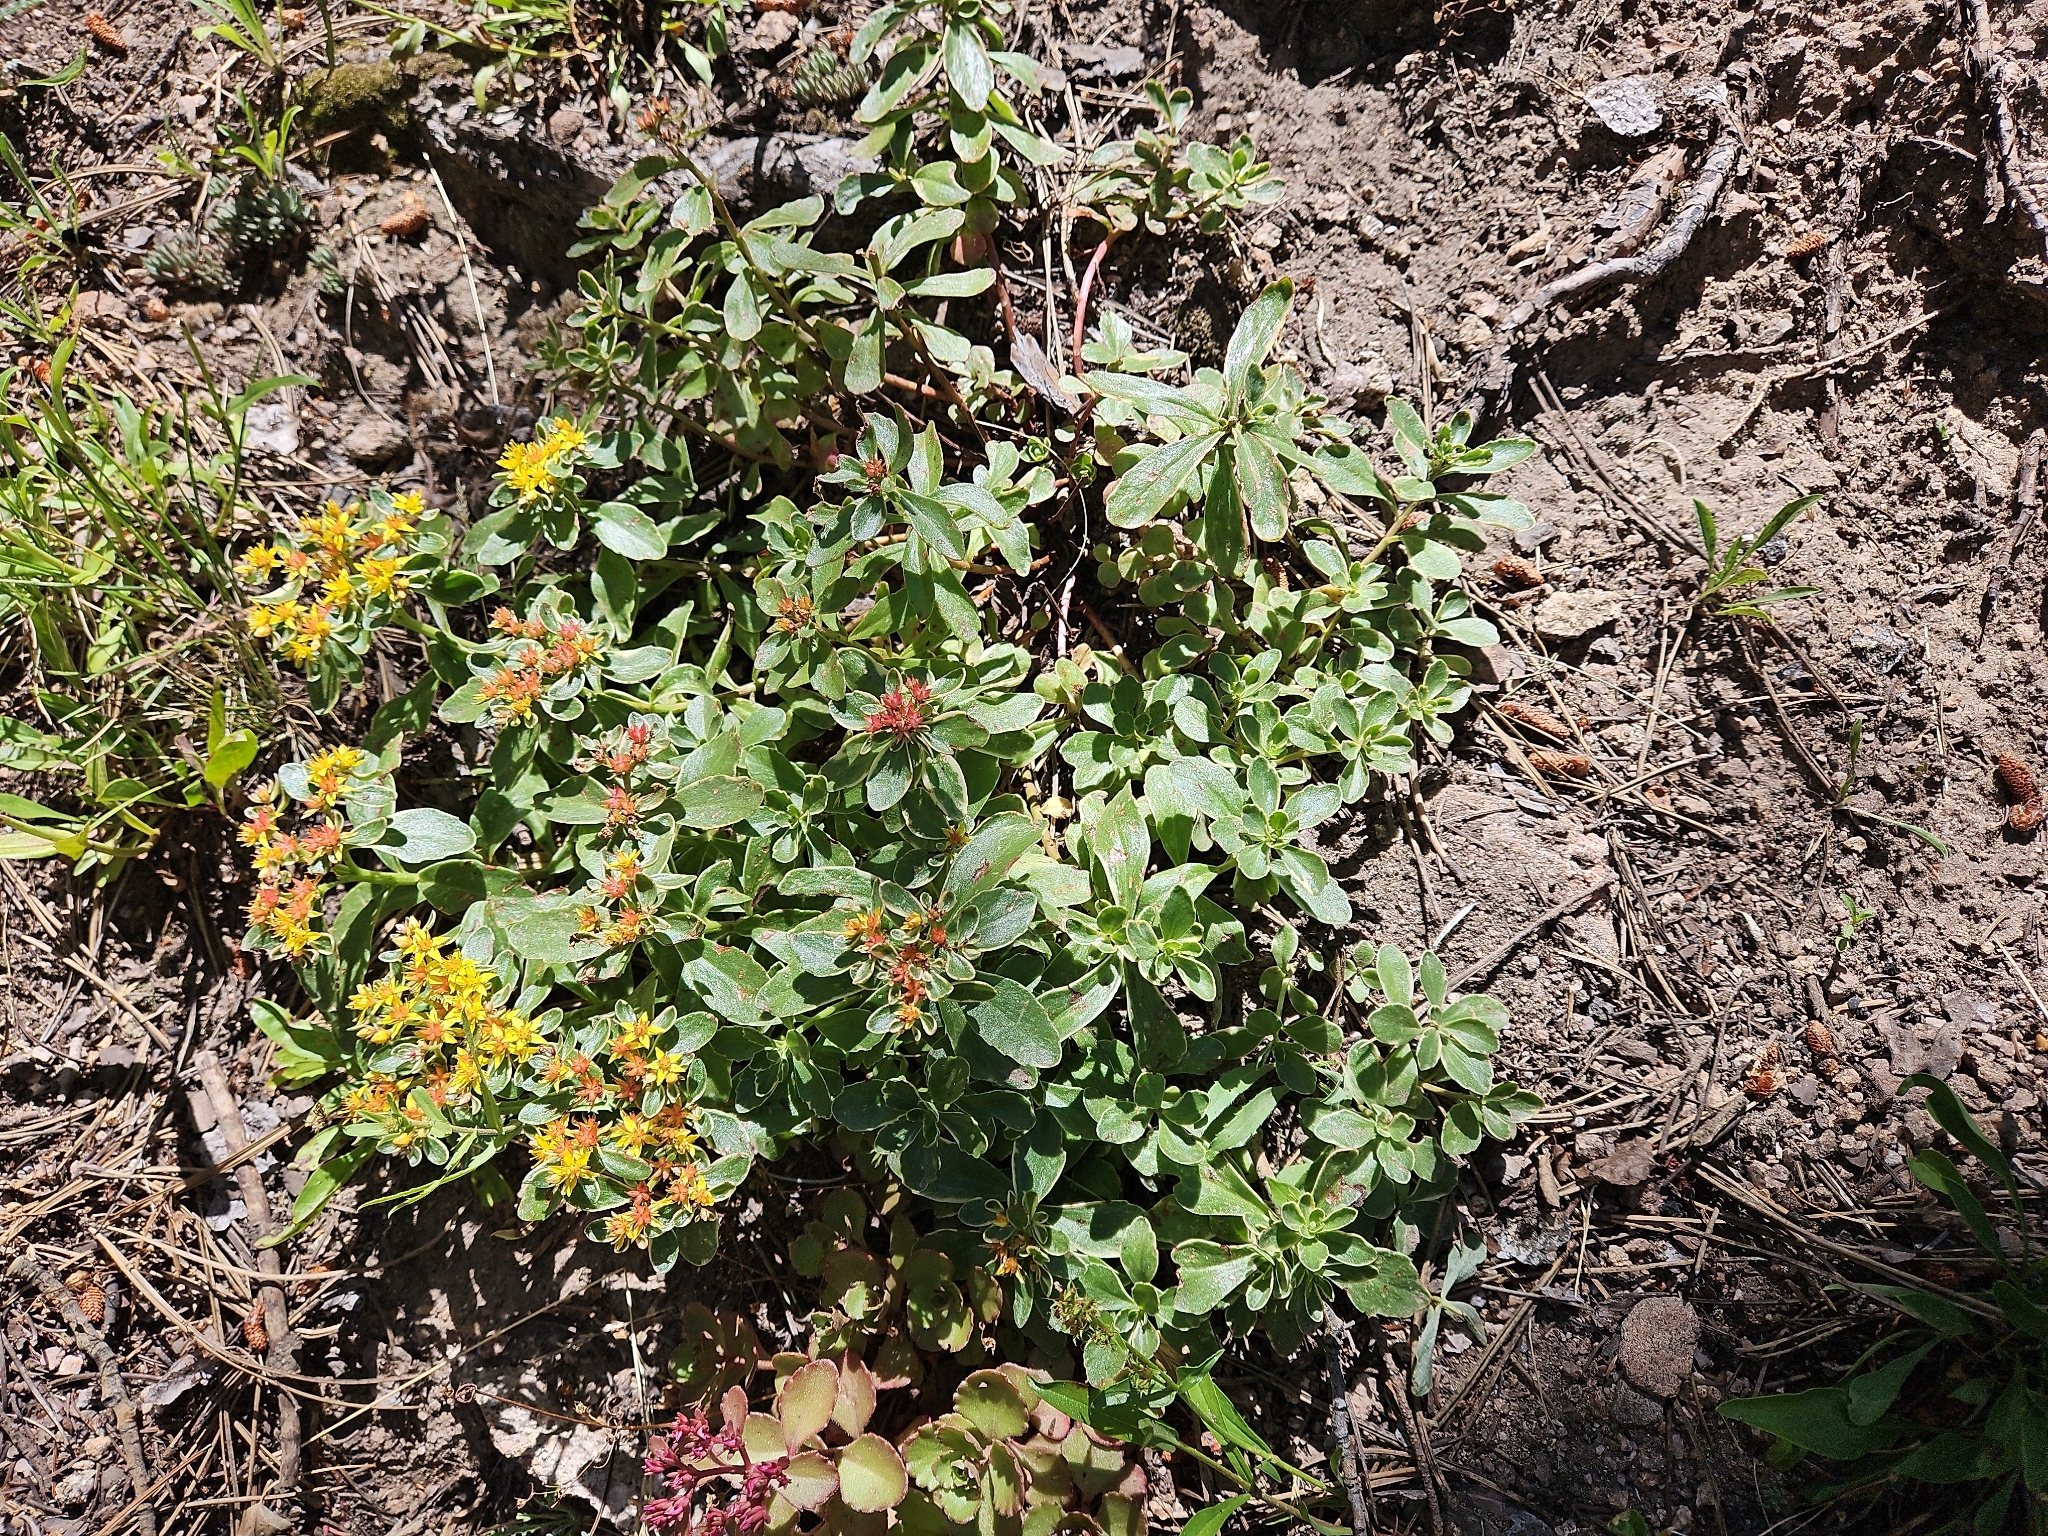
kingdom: Plantae
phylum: Tracheophyta
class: Magnoliopsida
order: Saxifragales
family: Crassulaceae
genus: Phedimus
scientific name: Phedimus kamtschaticus
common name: Orange stonecrop
